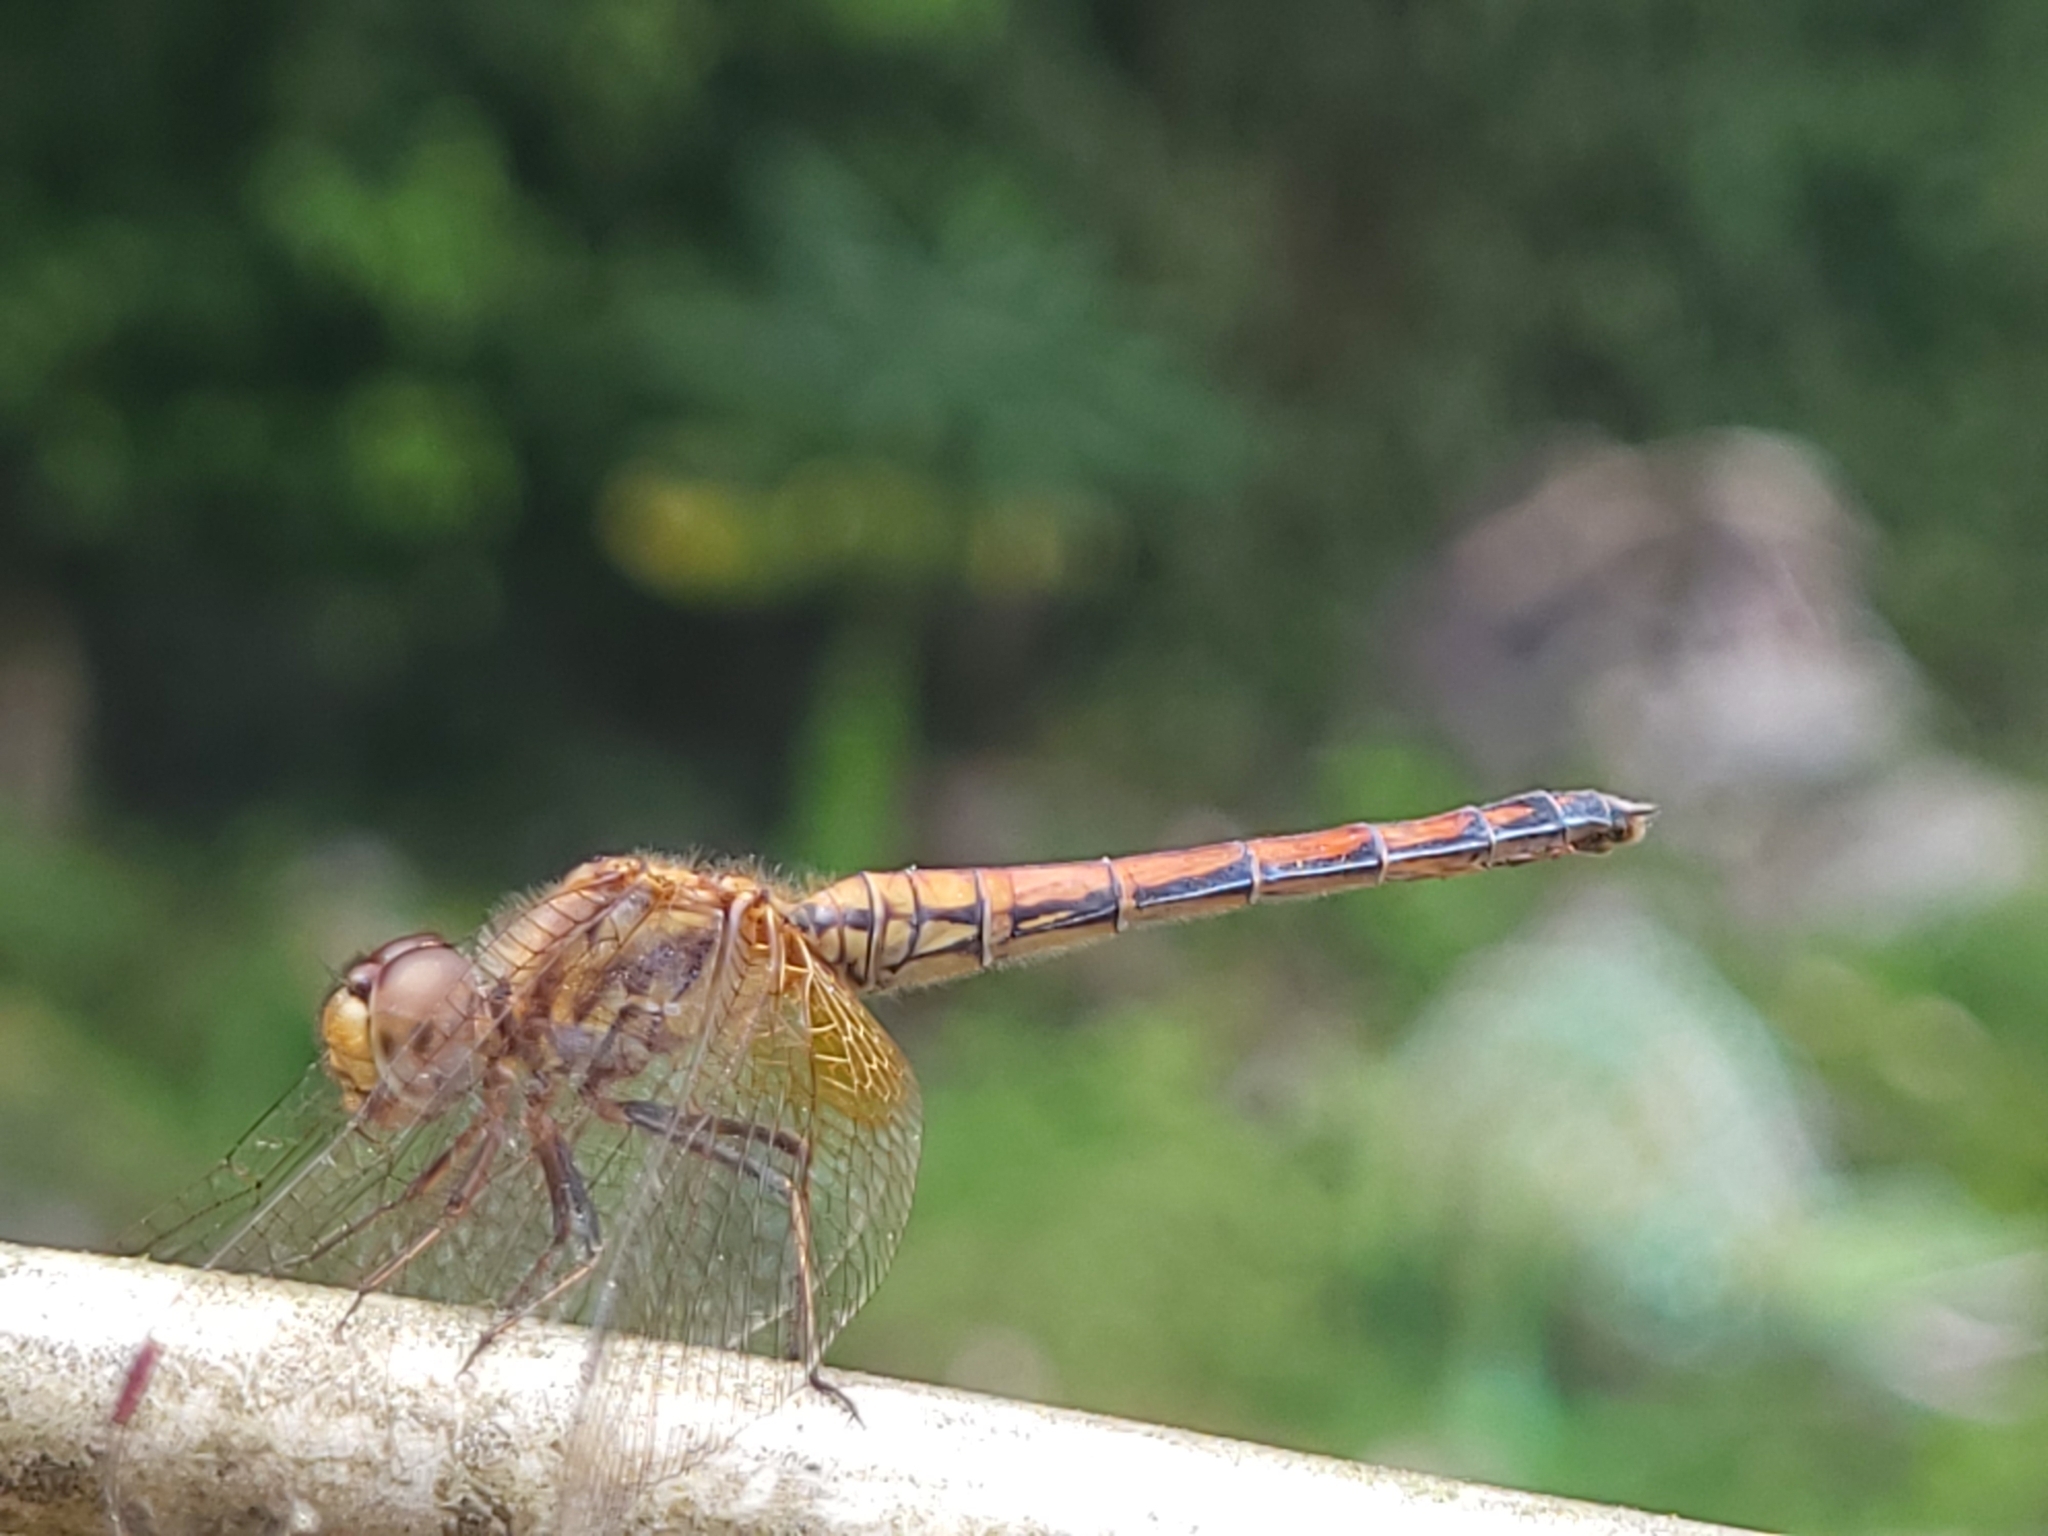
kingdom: Animalia
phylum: Arthropoda
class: Insecta
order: Odonata
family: Libellulidae
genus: Trithemis
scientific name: Trithemis aurora
